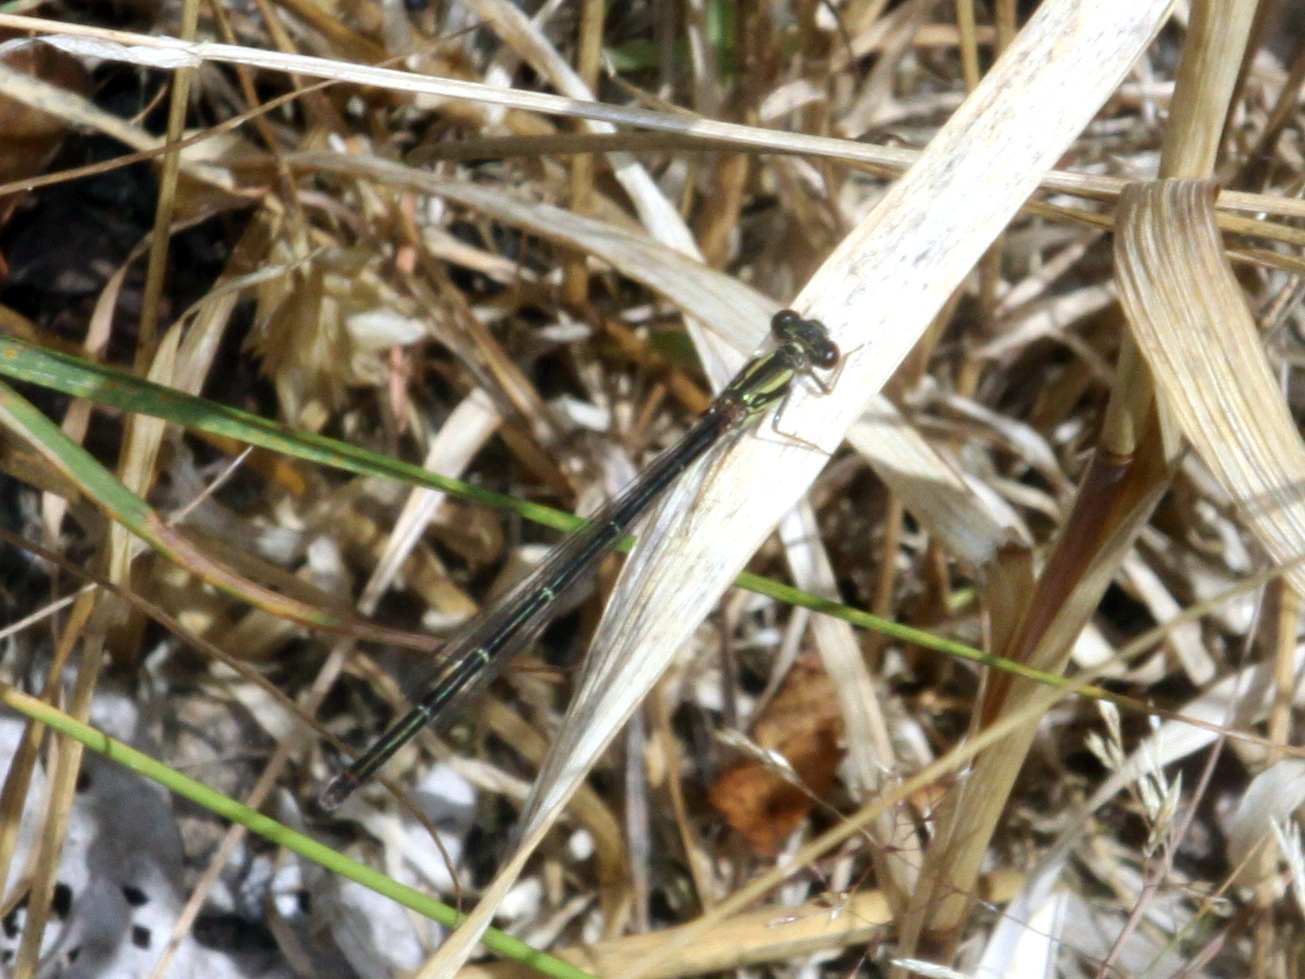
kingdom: Animalia
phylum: Arthropoda
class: Insecta
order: Odonata
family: Coenagrionidae
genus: Xanthocnemis
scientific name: Xanthocnemis zealandica
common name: Common redcoat damselfly
